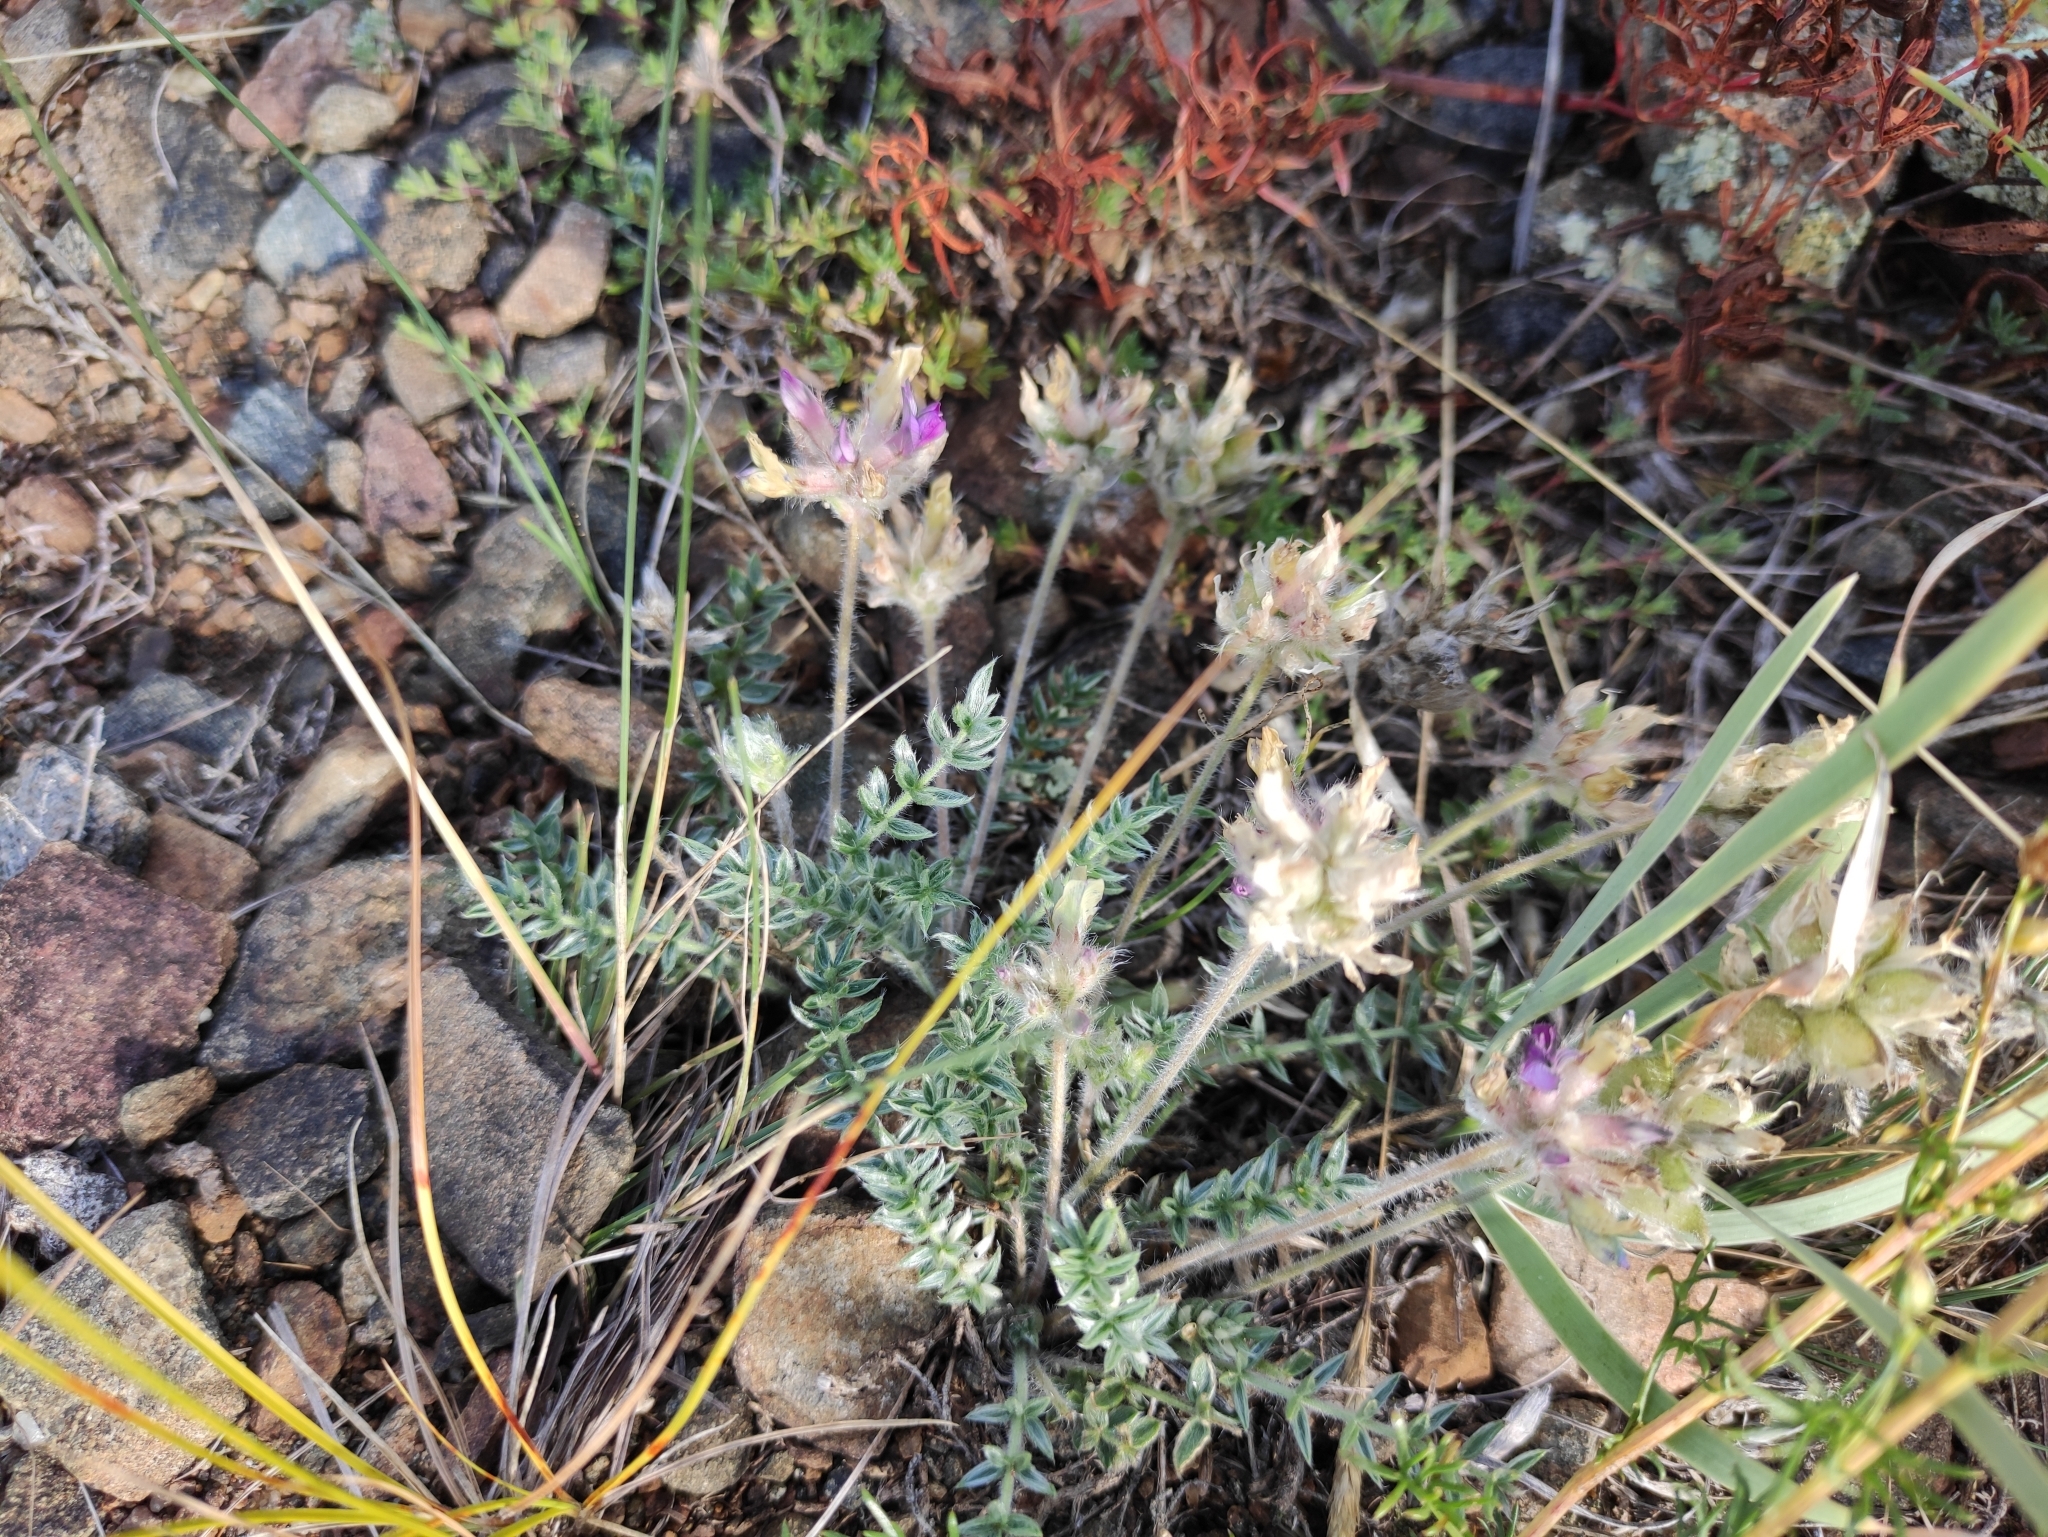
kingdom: Plantae
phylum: Tracheophyta
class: Magnoliopsida
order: Fabales
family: Fabaceae
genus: Oxytropis
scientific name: Oxytropis turczaninovii
